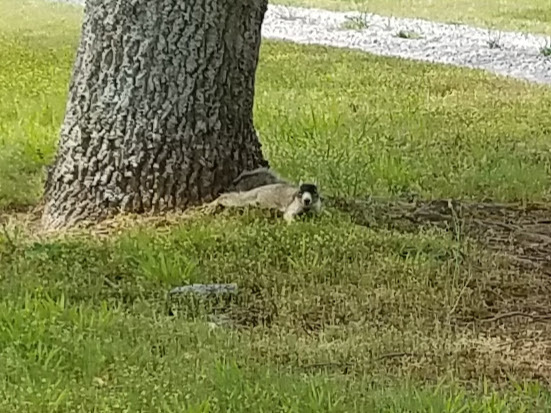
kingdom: Animalia
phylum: Chordata
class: Mammalia
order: Rodentia
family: Sciuridae
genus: Sciurus
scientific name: Sciurus niger
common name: Fox squirrel
